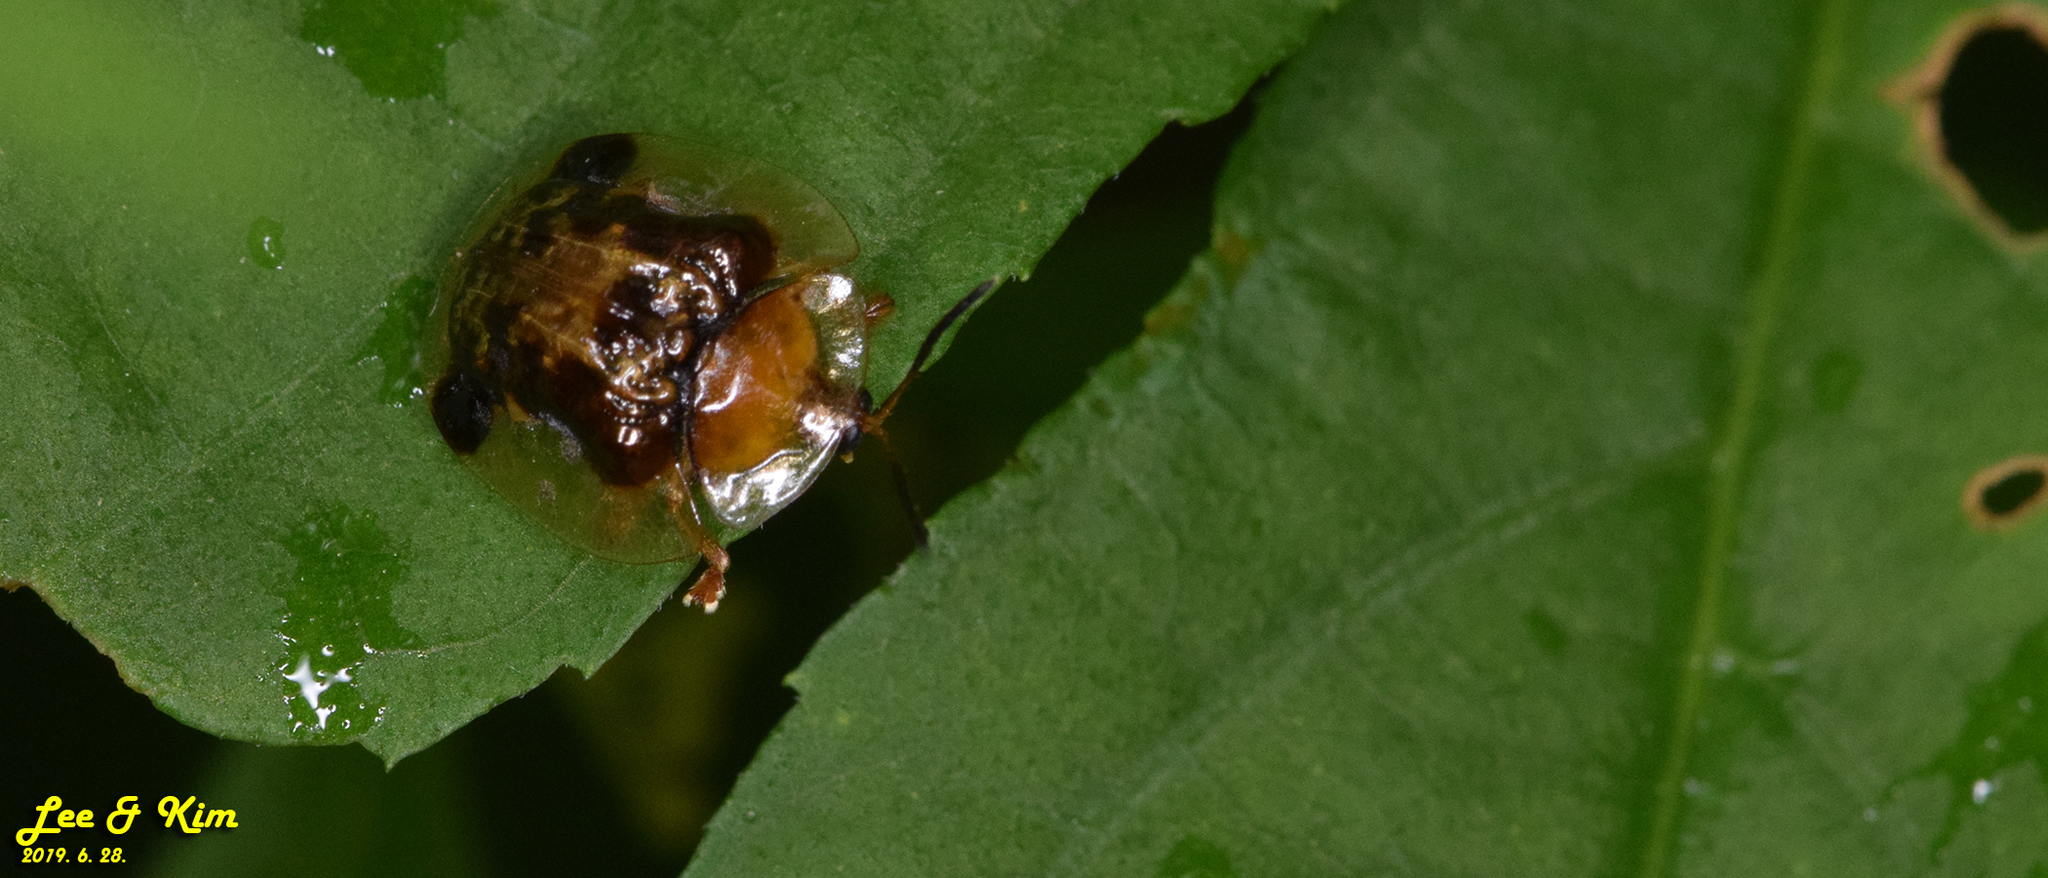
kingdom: Animalia
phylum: Arthropoda
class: Insecta
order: Coleoptera
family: Chrysomelidae
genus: Thlaspida
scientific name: Thlaspida biramosa
